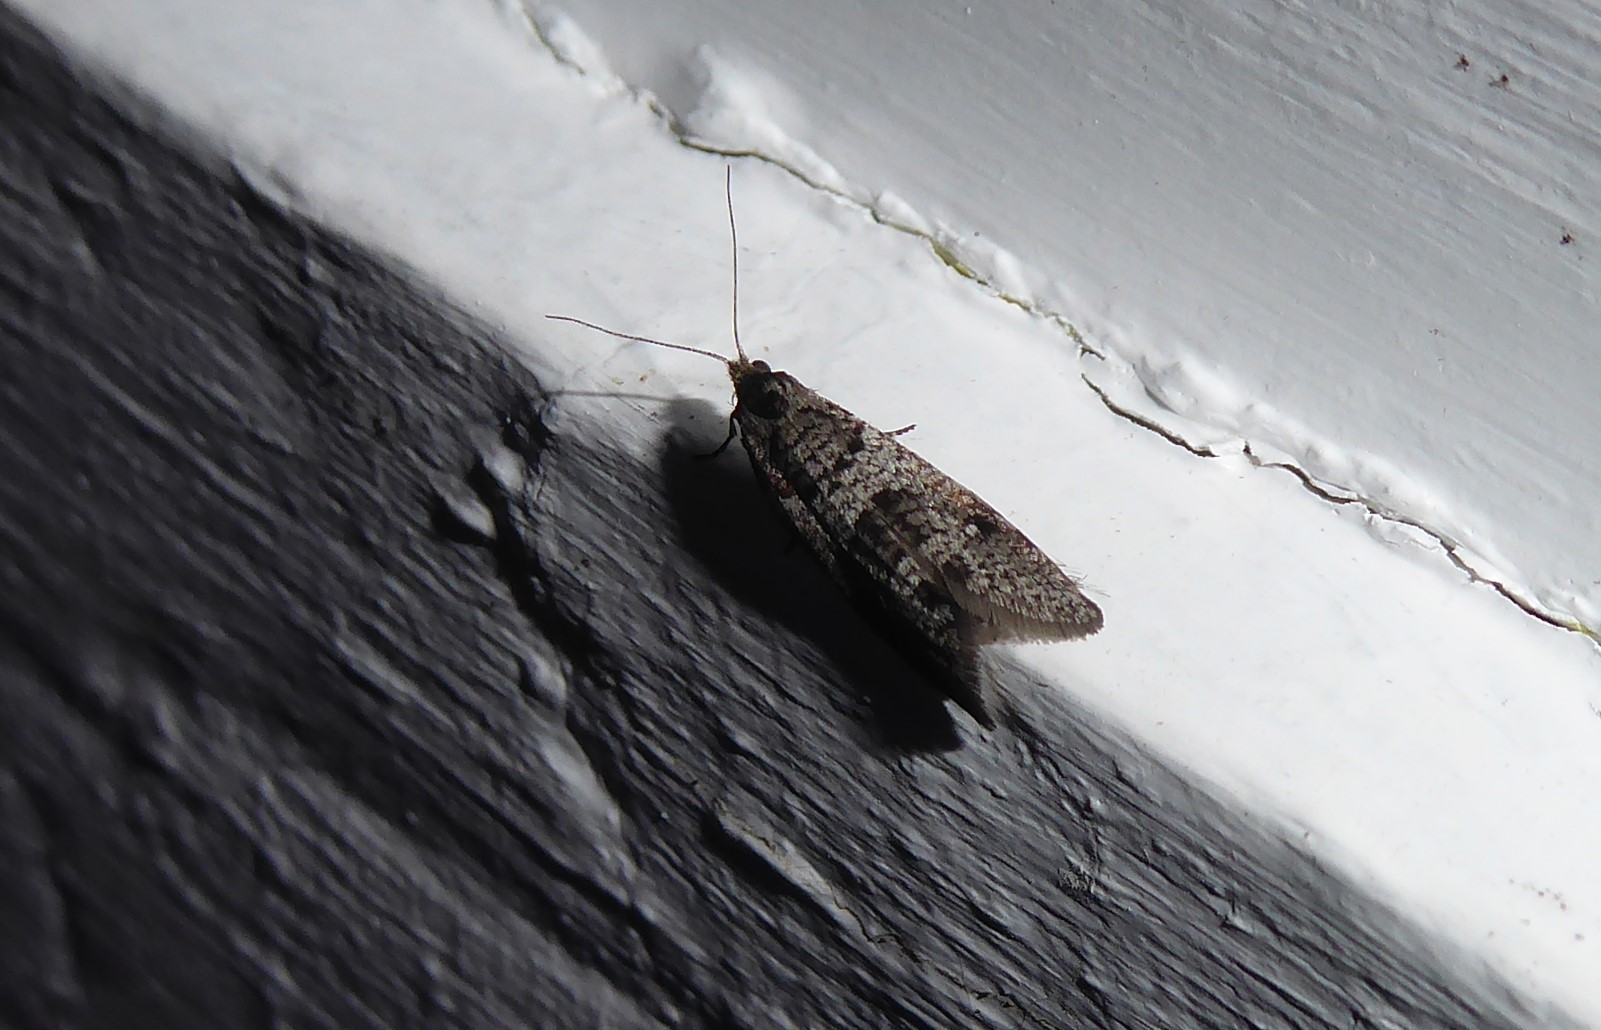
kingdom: Animalia
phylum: Arthropoda
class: Insecta
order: Lepidoptera
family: Psychidae
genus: Lepidoscia
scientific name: Lepidoscia heliochares
